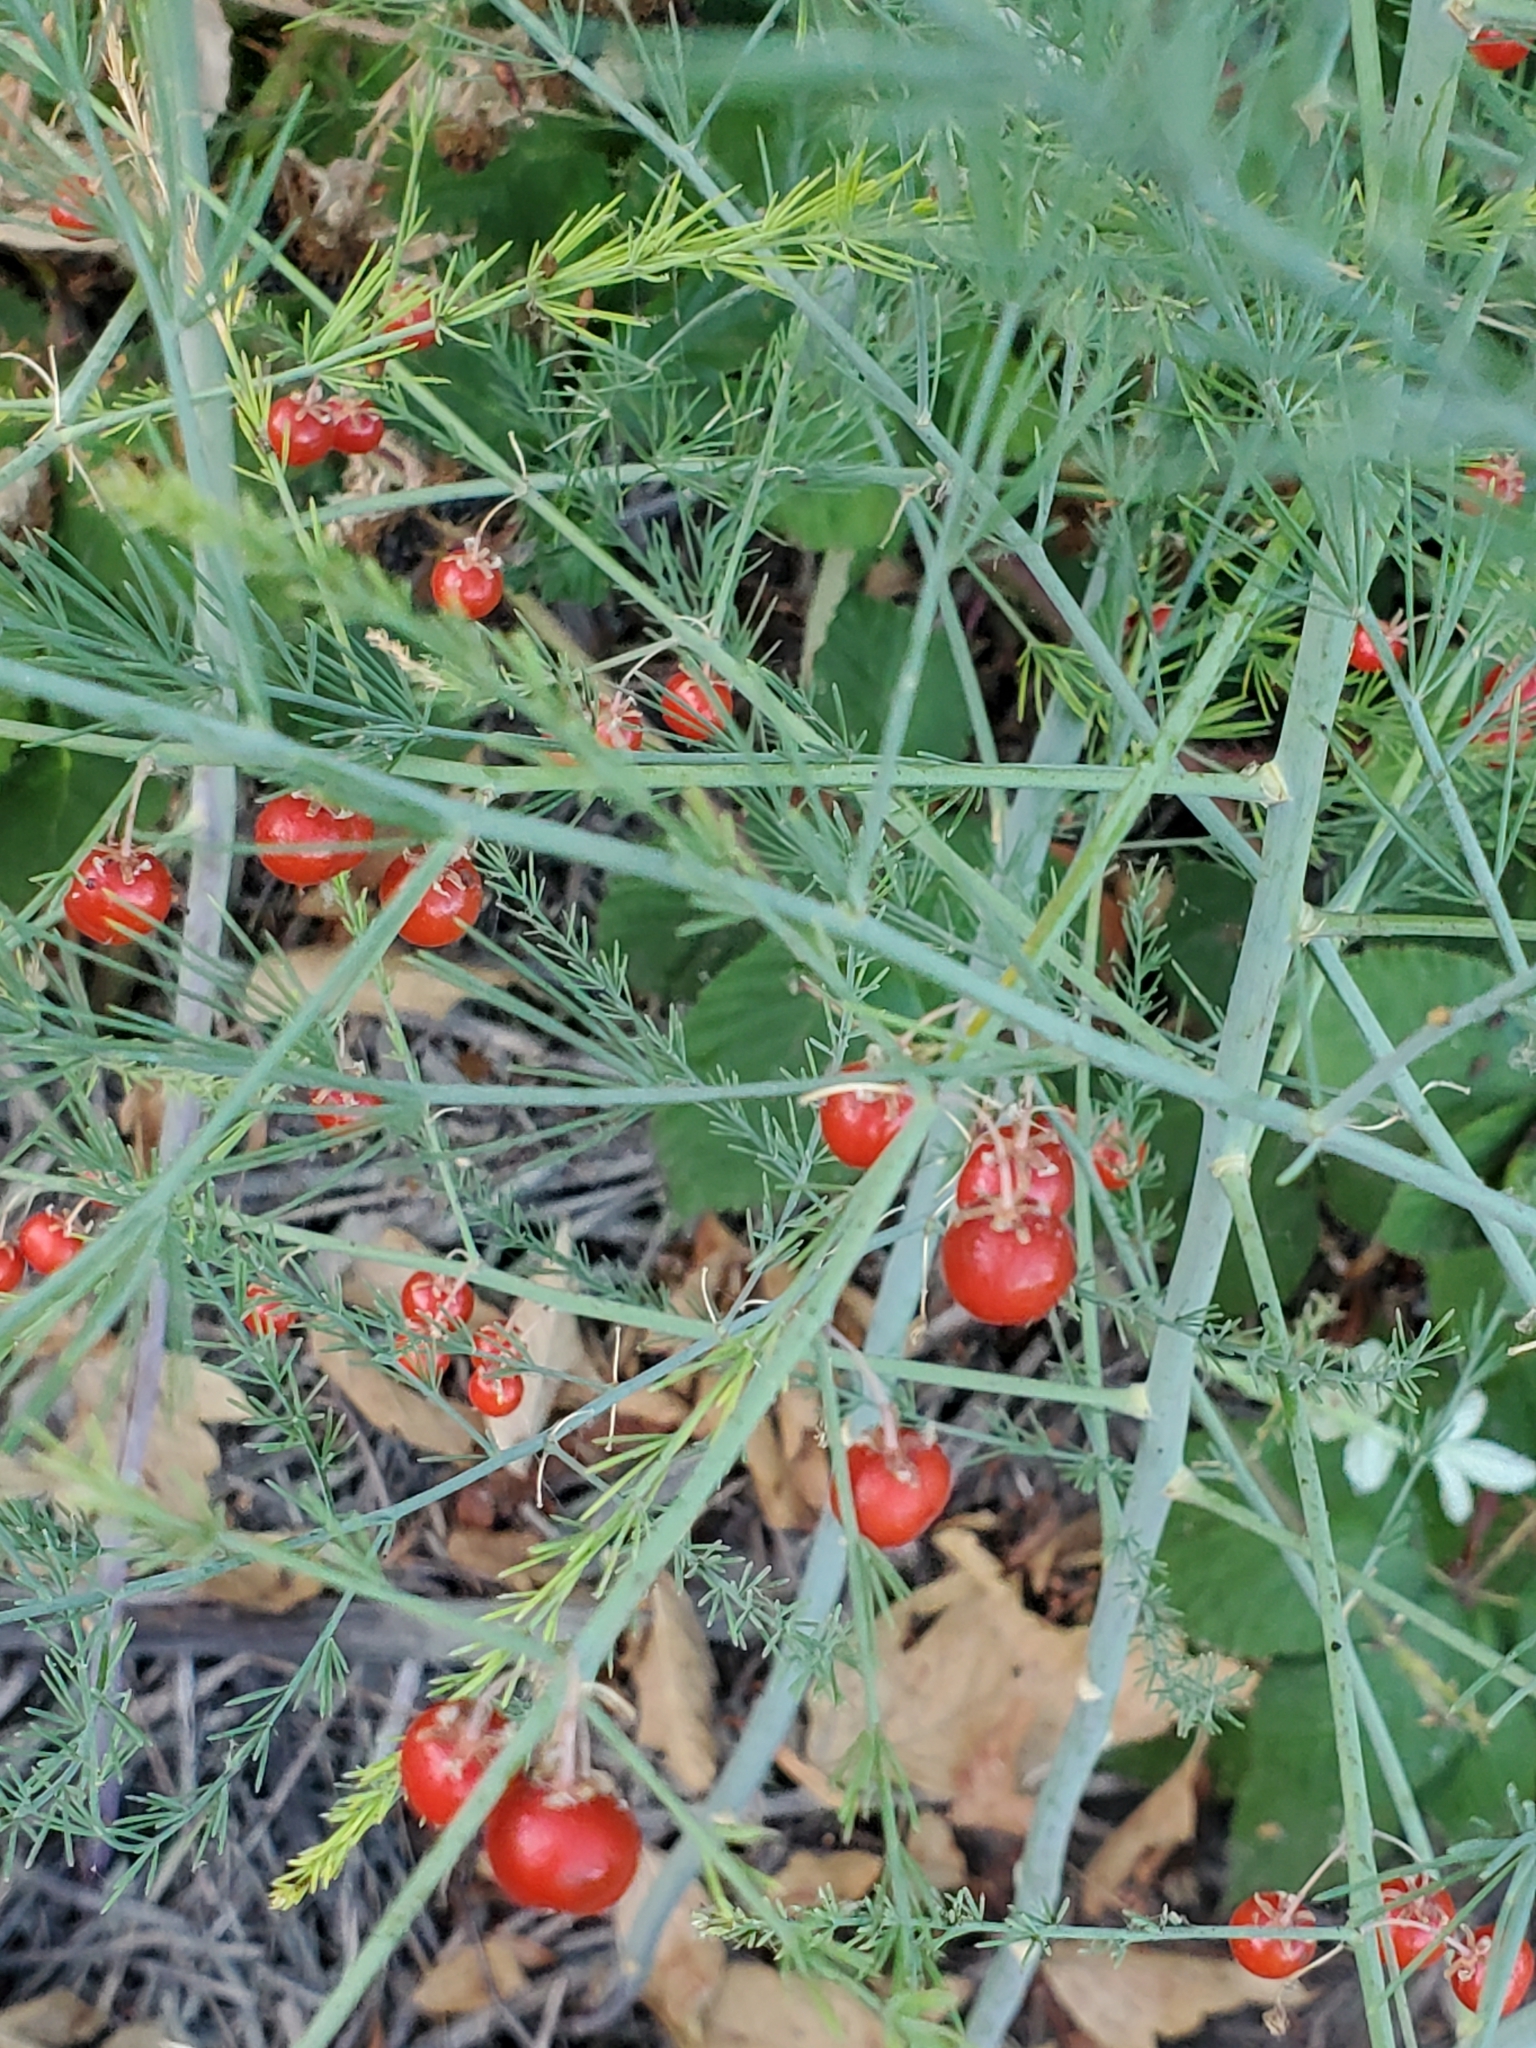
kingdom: Plantae
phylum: Tracheophyta
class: Liliopsida
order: Asparagales
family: Asparagaceae
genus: Asparagus
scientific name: Asparagus officinalis
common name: Garden asparagus
